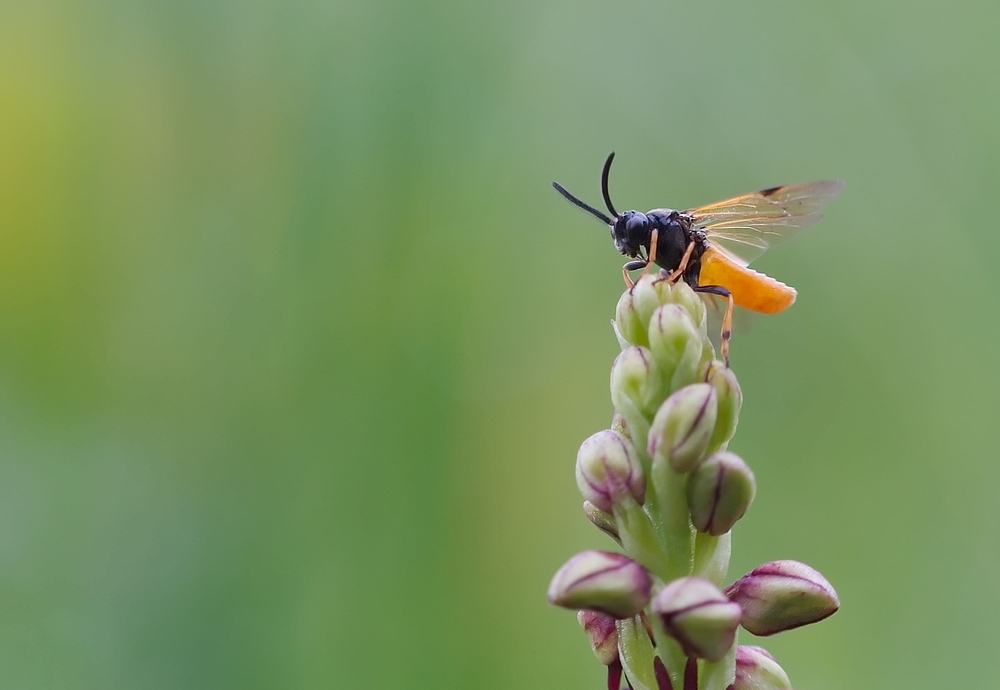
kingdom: Animalia
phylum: Arthropoda
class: Insecta
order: Hymenoptera
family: Argidae
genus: Arge
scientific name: Arge melanochra
